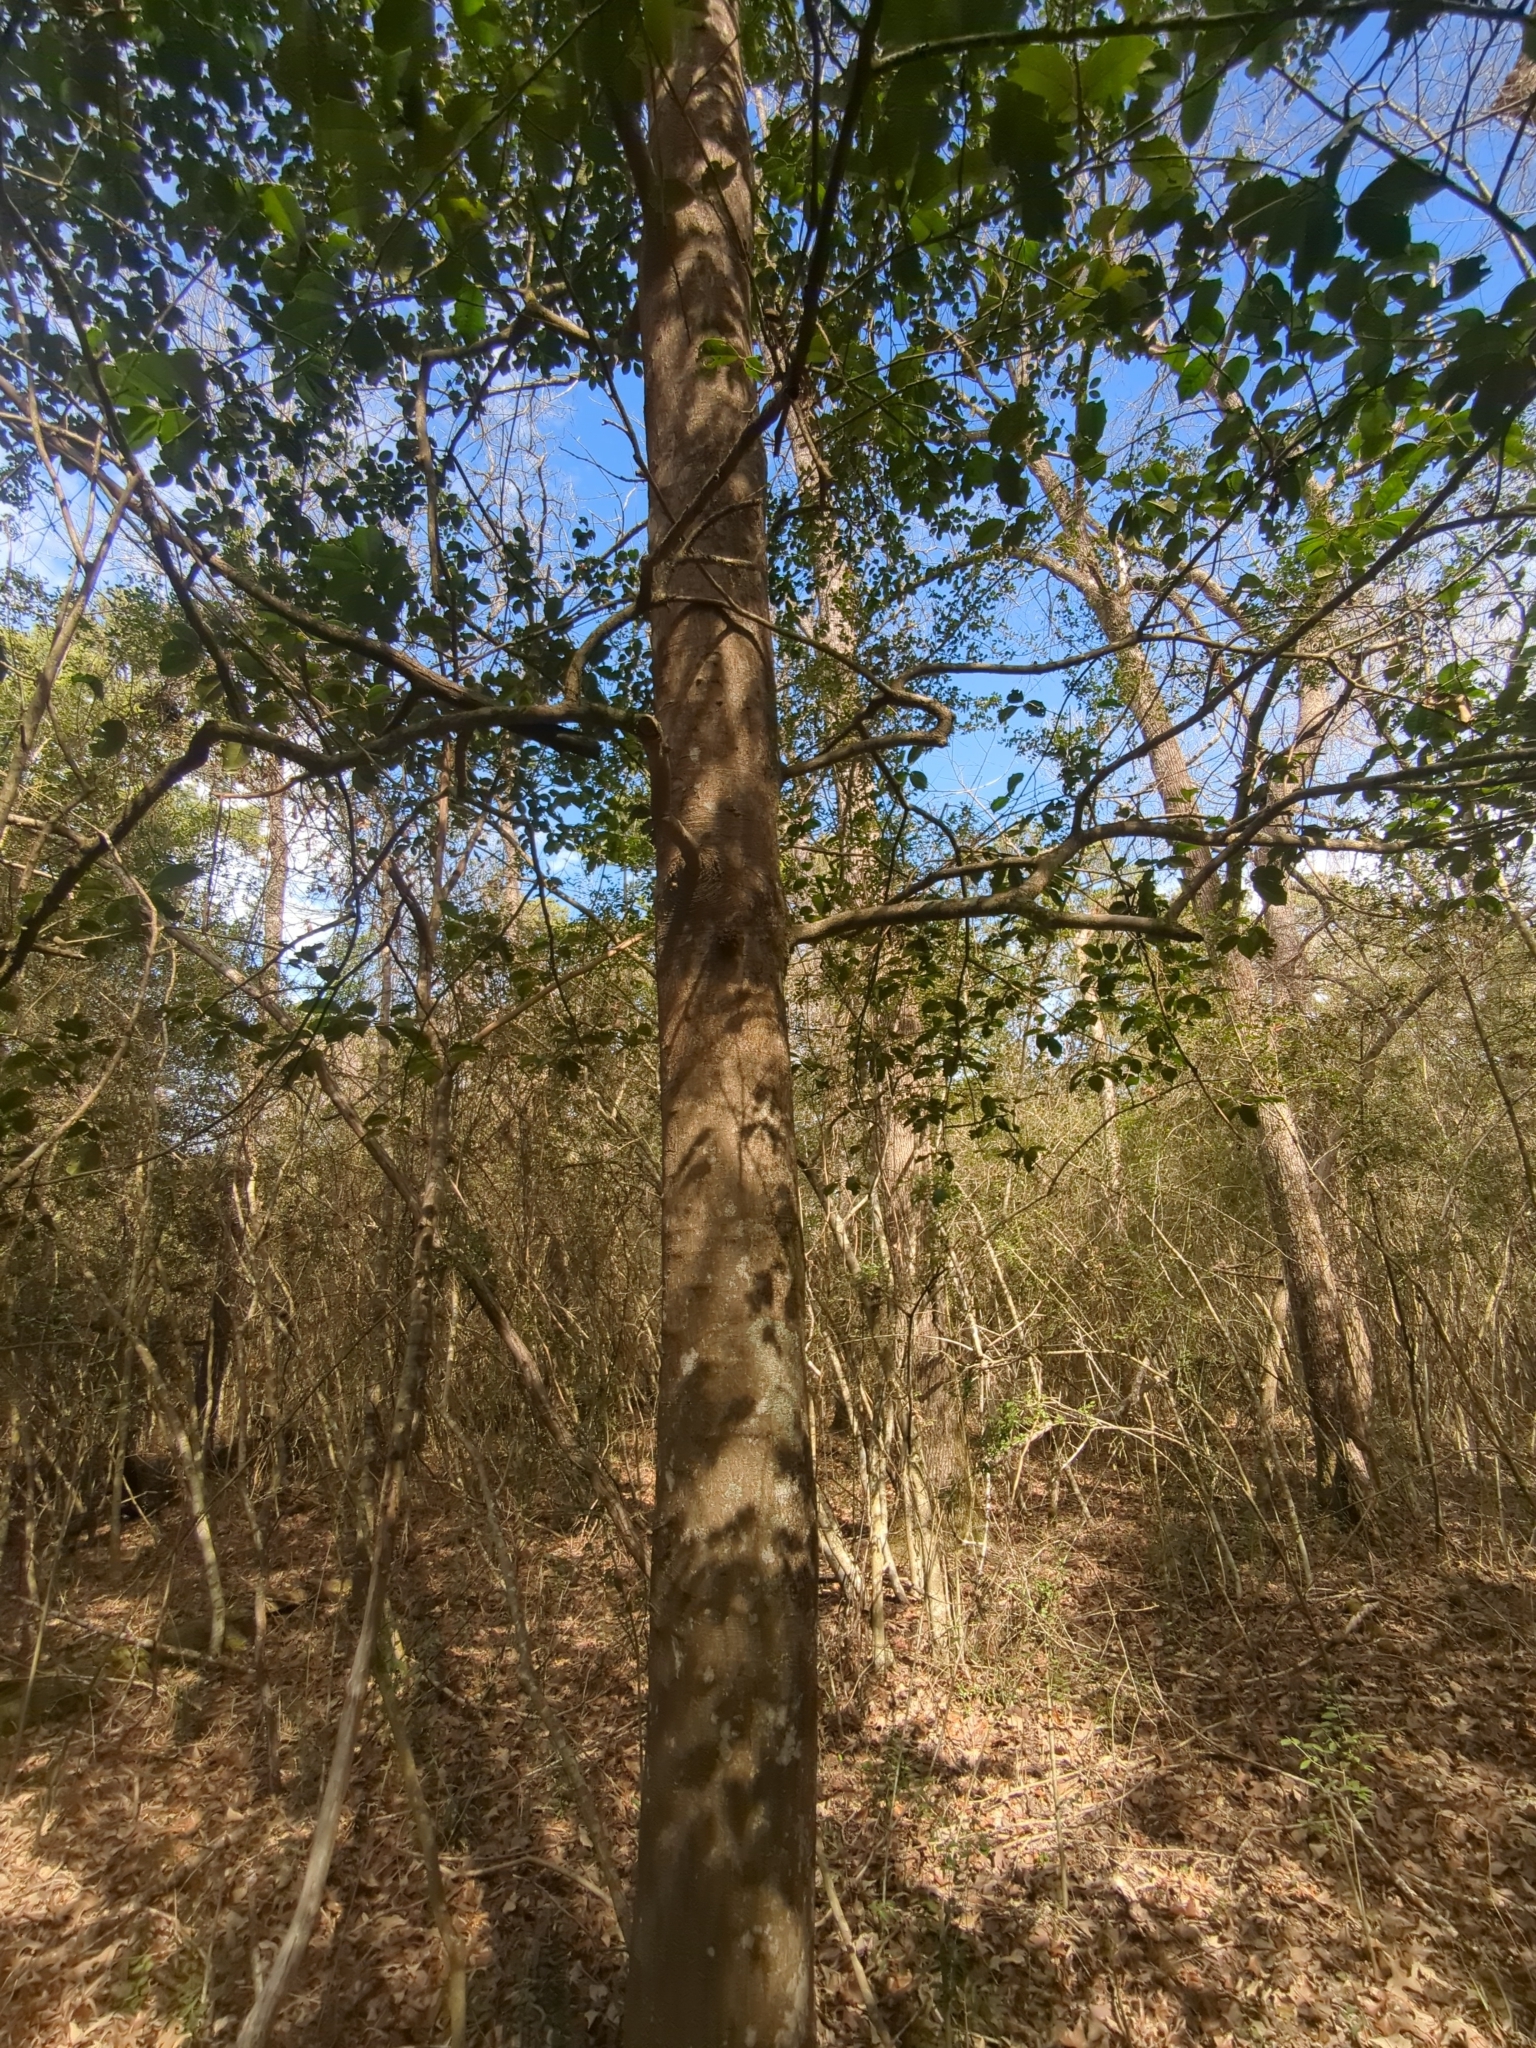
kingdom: Plantae
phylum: Tracheophyta
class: Magnoliopsida
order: Aquifoliales
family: Aquifoliaceae
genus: Ilex
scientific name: Ilex opaca
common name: American holly
